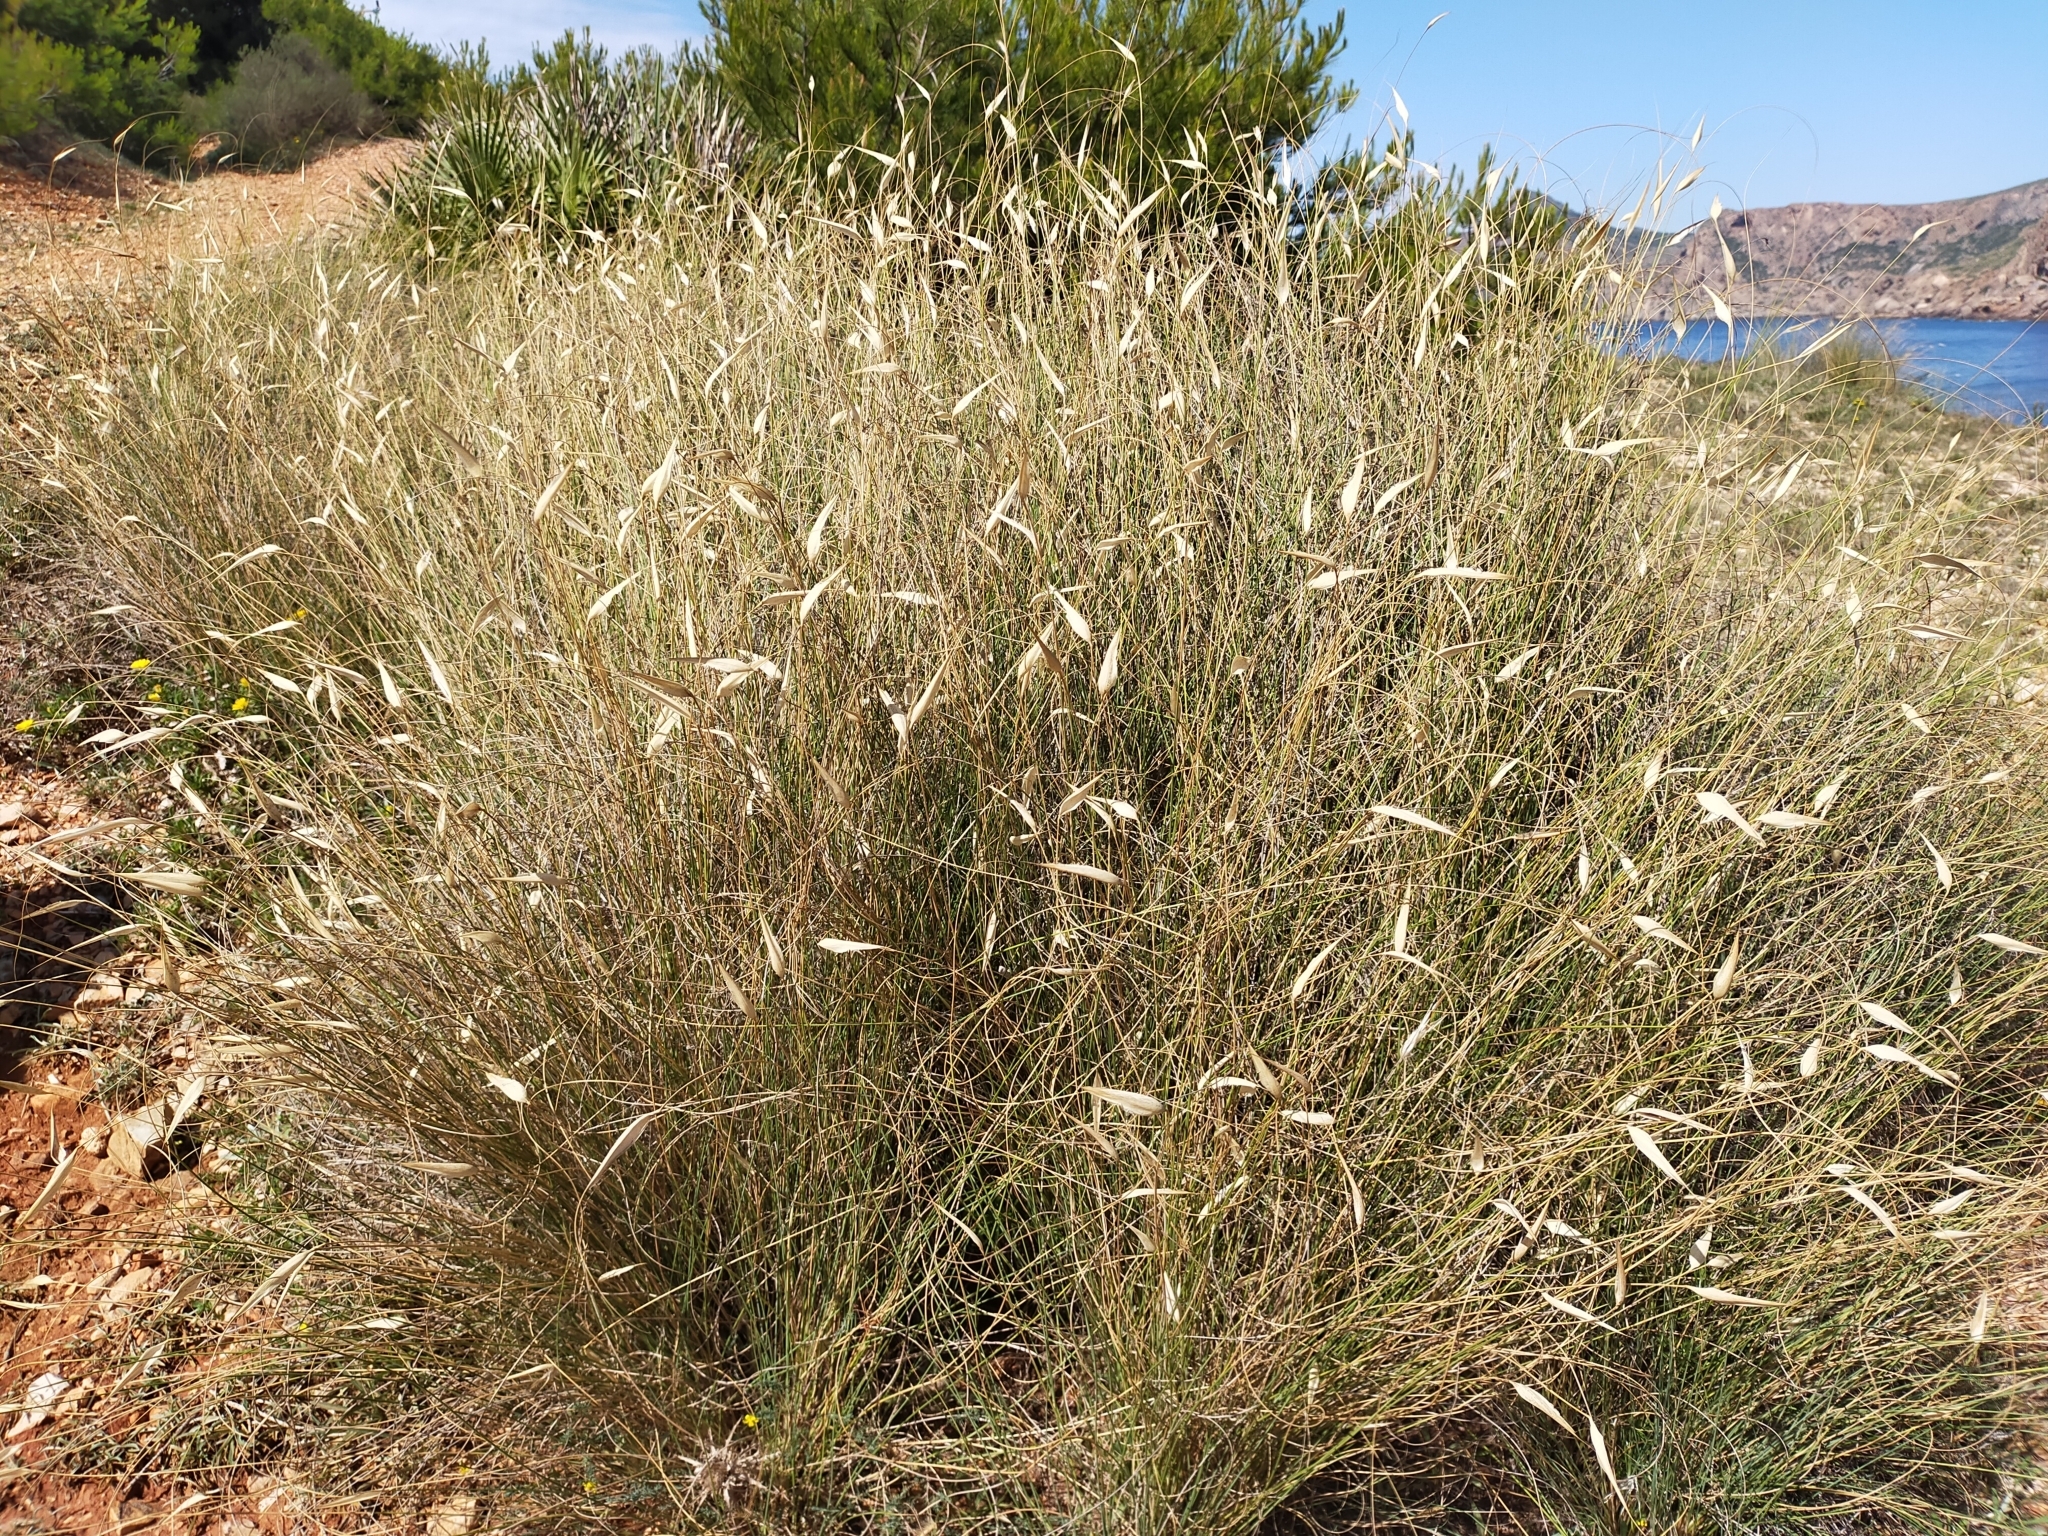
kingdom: Plantae
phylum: Tracheophyta
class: Liliopsida
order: Poales
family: Poaceae
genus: Lygeum
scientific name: Lygeum spartum
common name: Albardine
